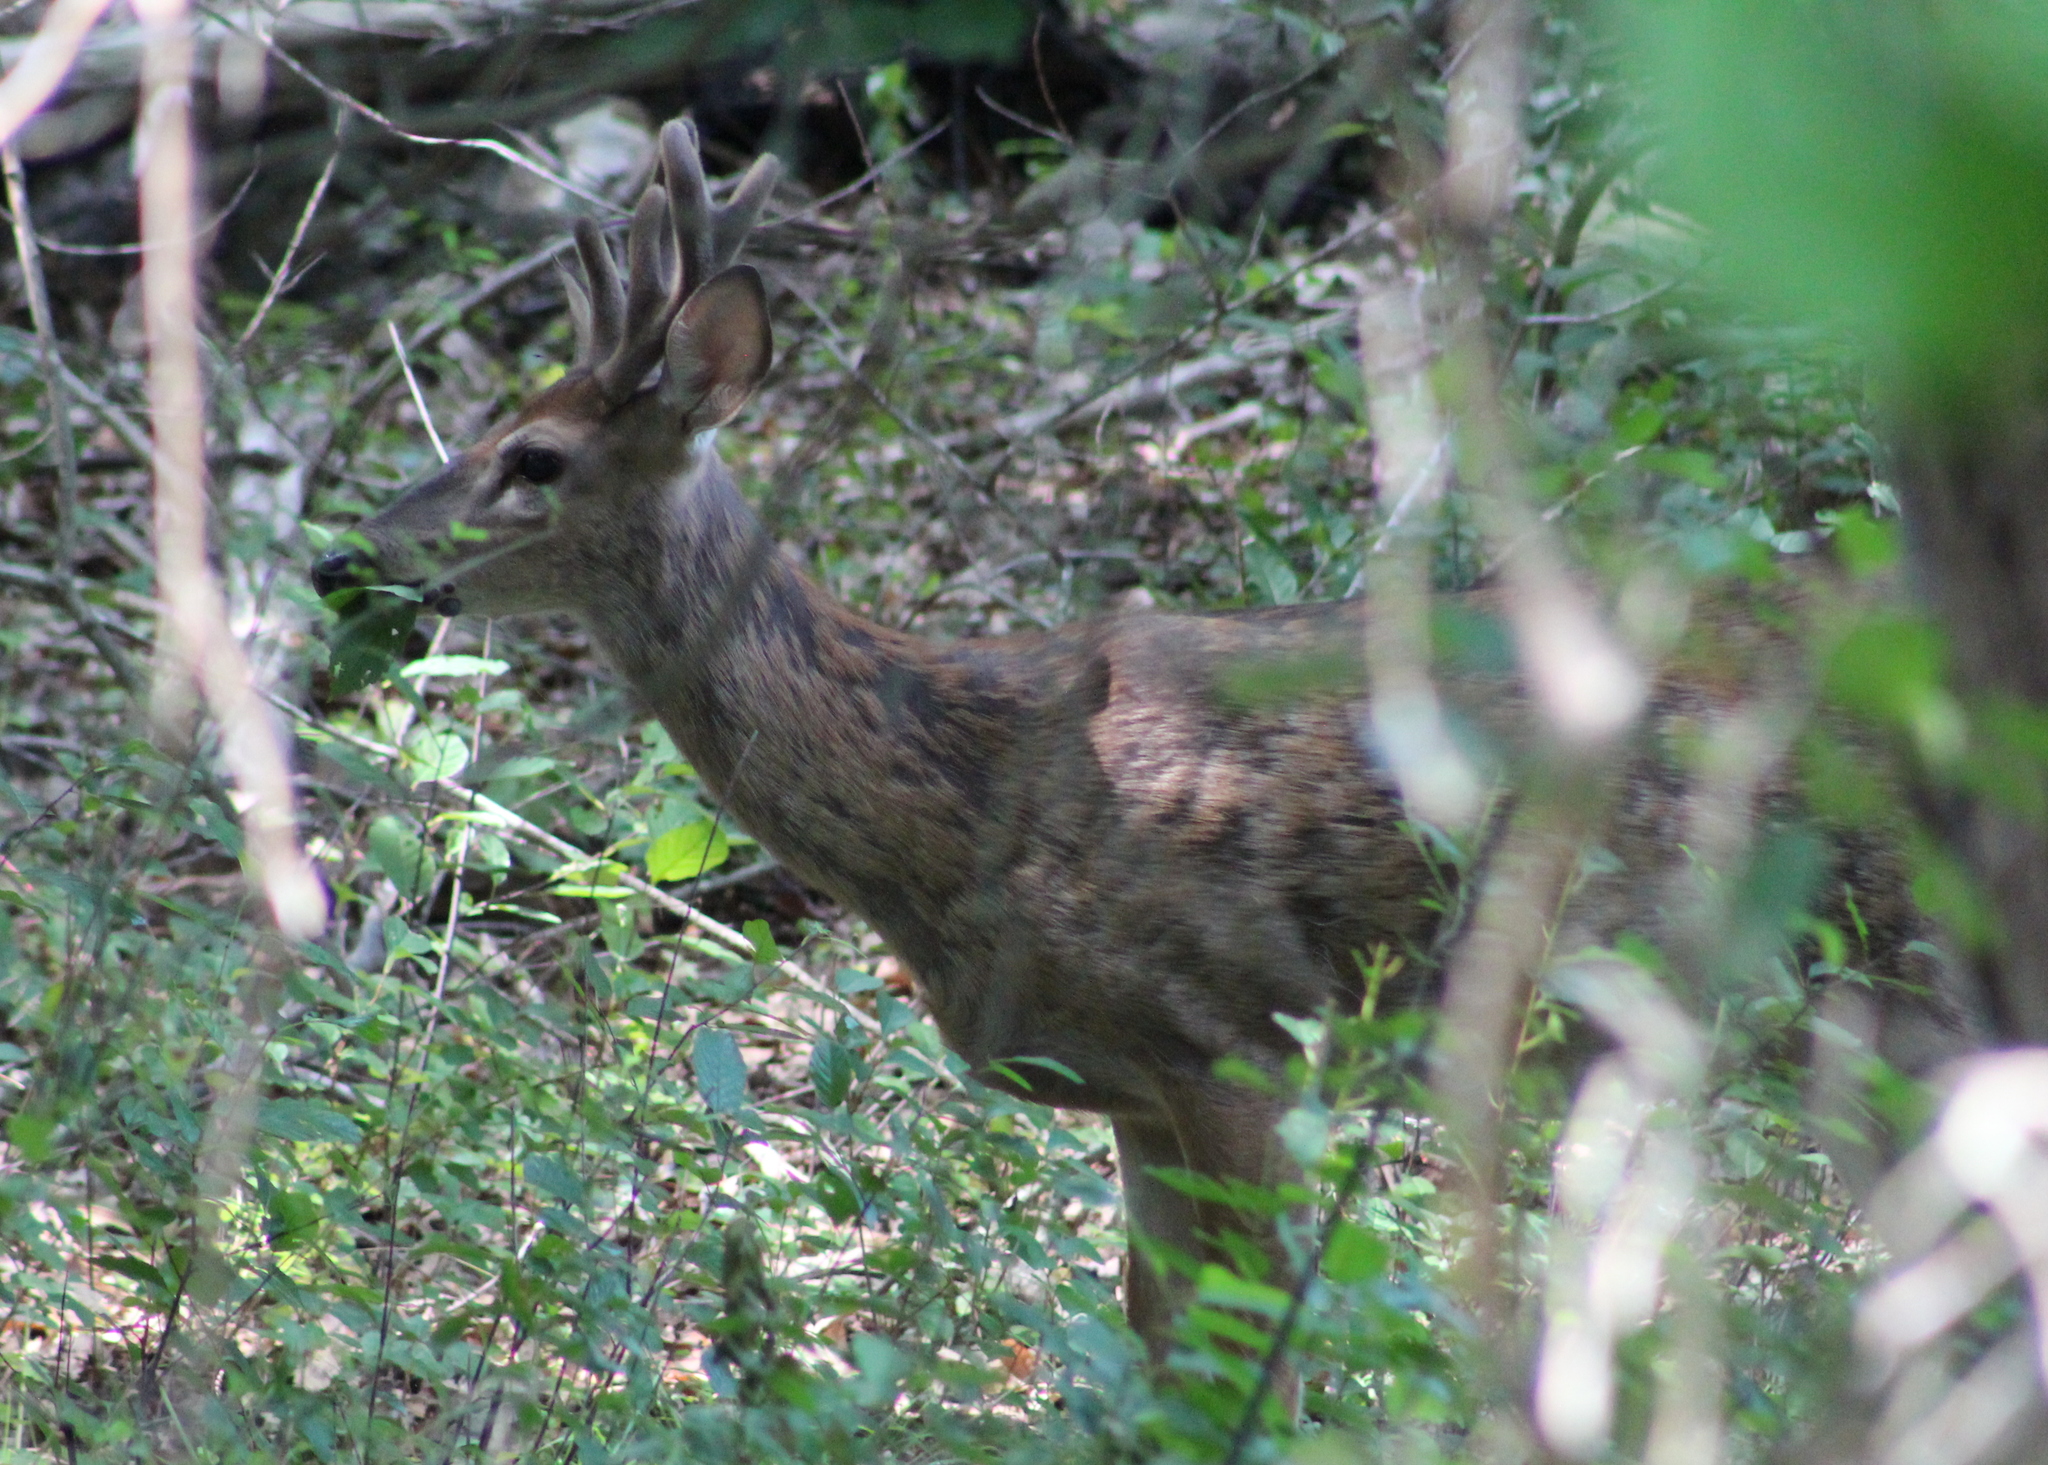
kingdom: Animalia
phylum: Chordata
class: Mammalia
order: Artiodactyla
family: Cervidae
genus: Odocoileus
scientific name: Odocoileus virginianus
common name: White-tailed deer
